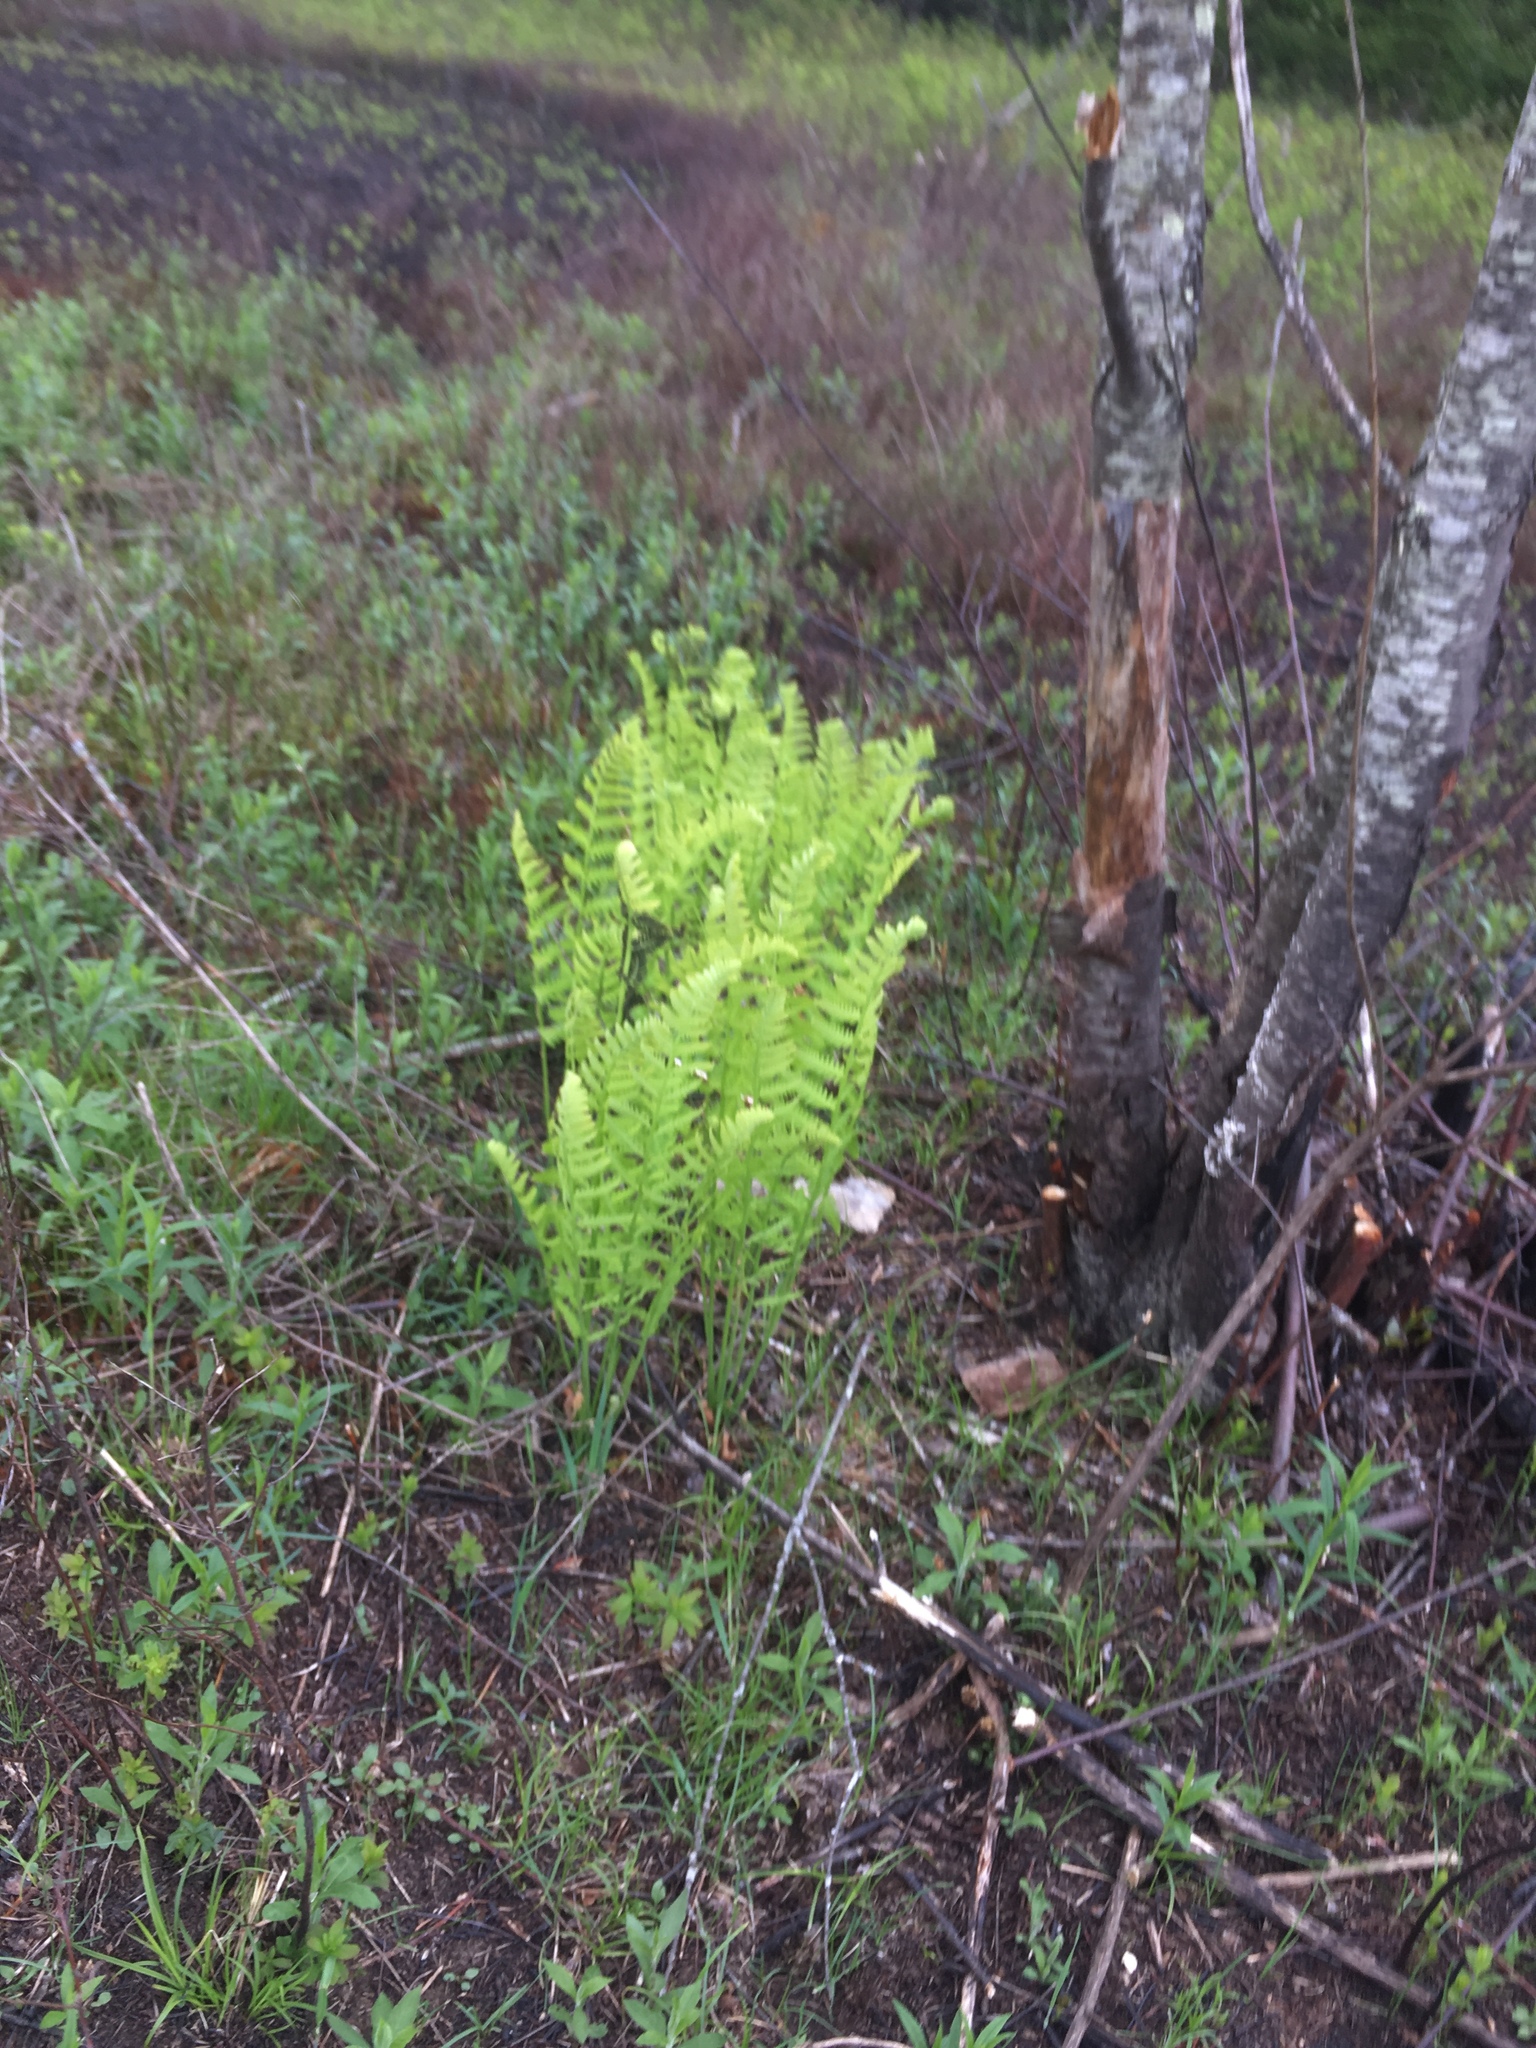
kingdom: Plantae
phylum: Tracheophyta
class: Polypodiopsida
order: Osmundales
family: Osmundaceae
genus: Claytosmunda
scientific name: Claytosmunda claytoniana
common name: Clayton's fern
